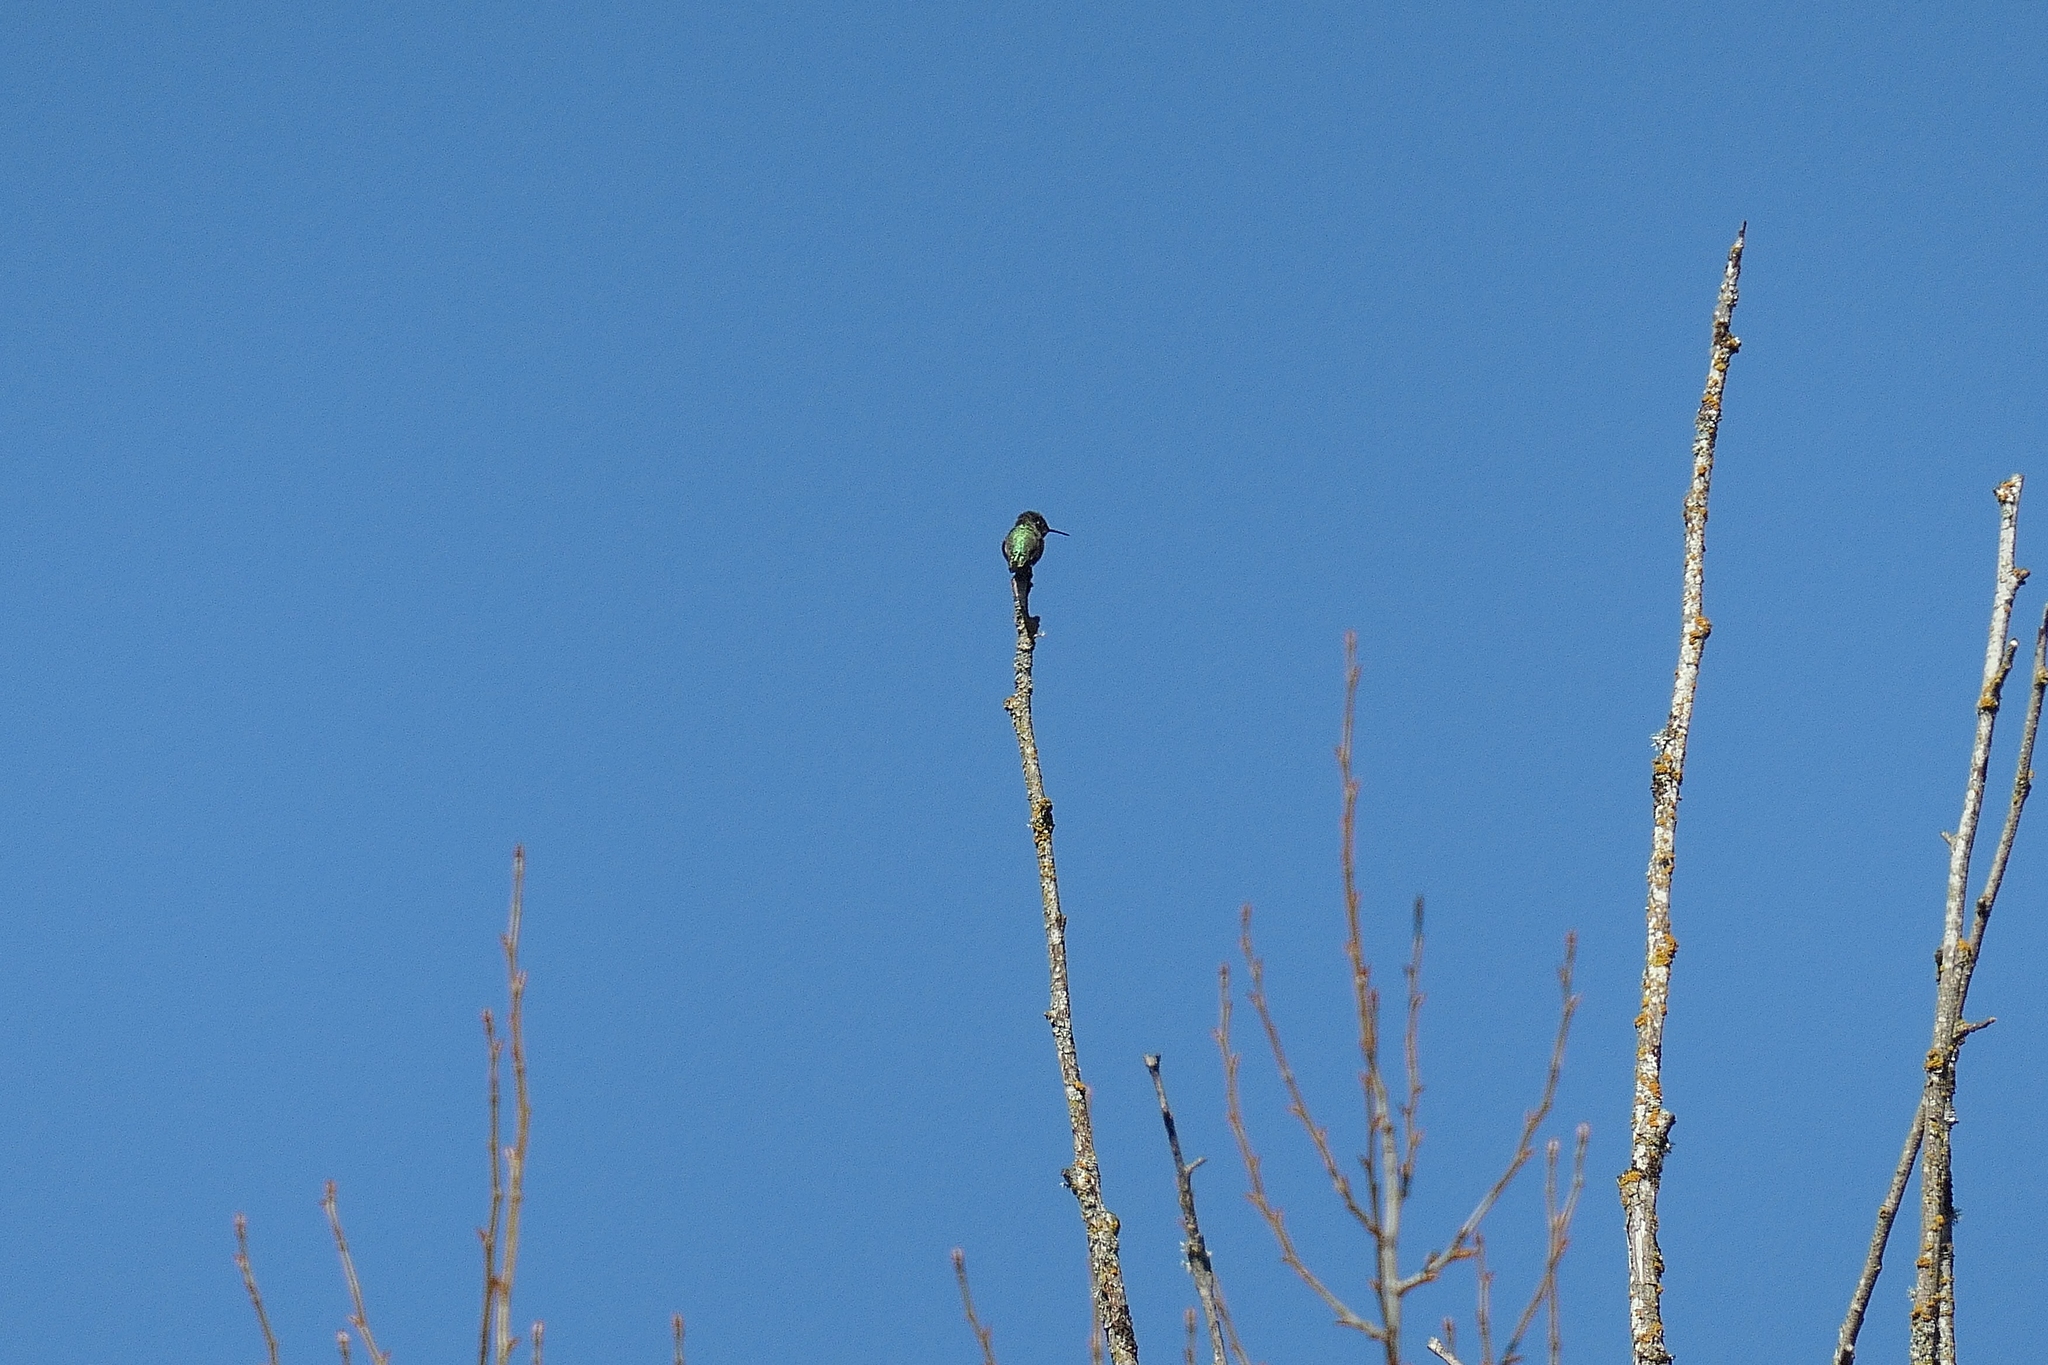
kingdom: Animalia
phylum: Chordata
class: Aves
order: Apodiformes
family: Trochilidae
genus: Calypte
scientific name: Calypte anna
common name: Anna's hummingbird
